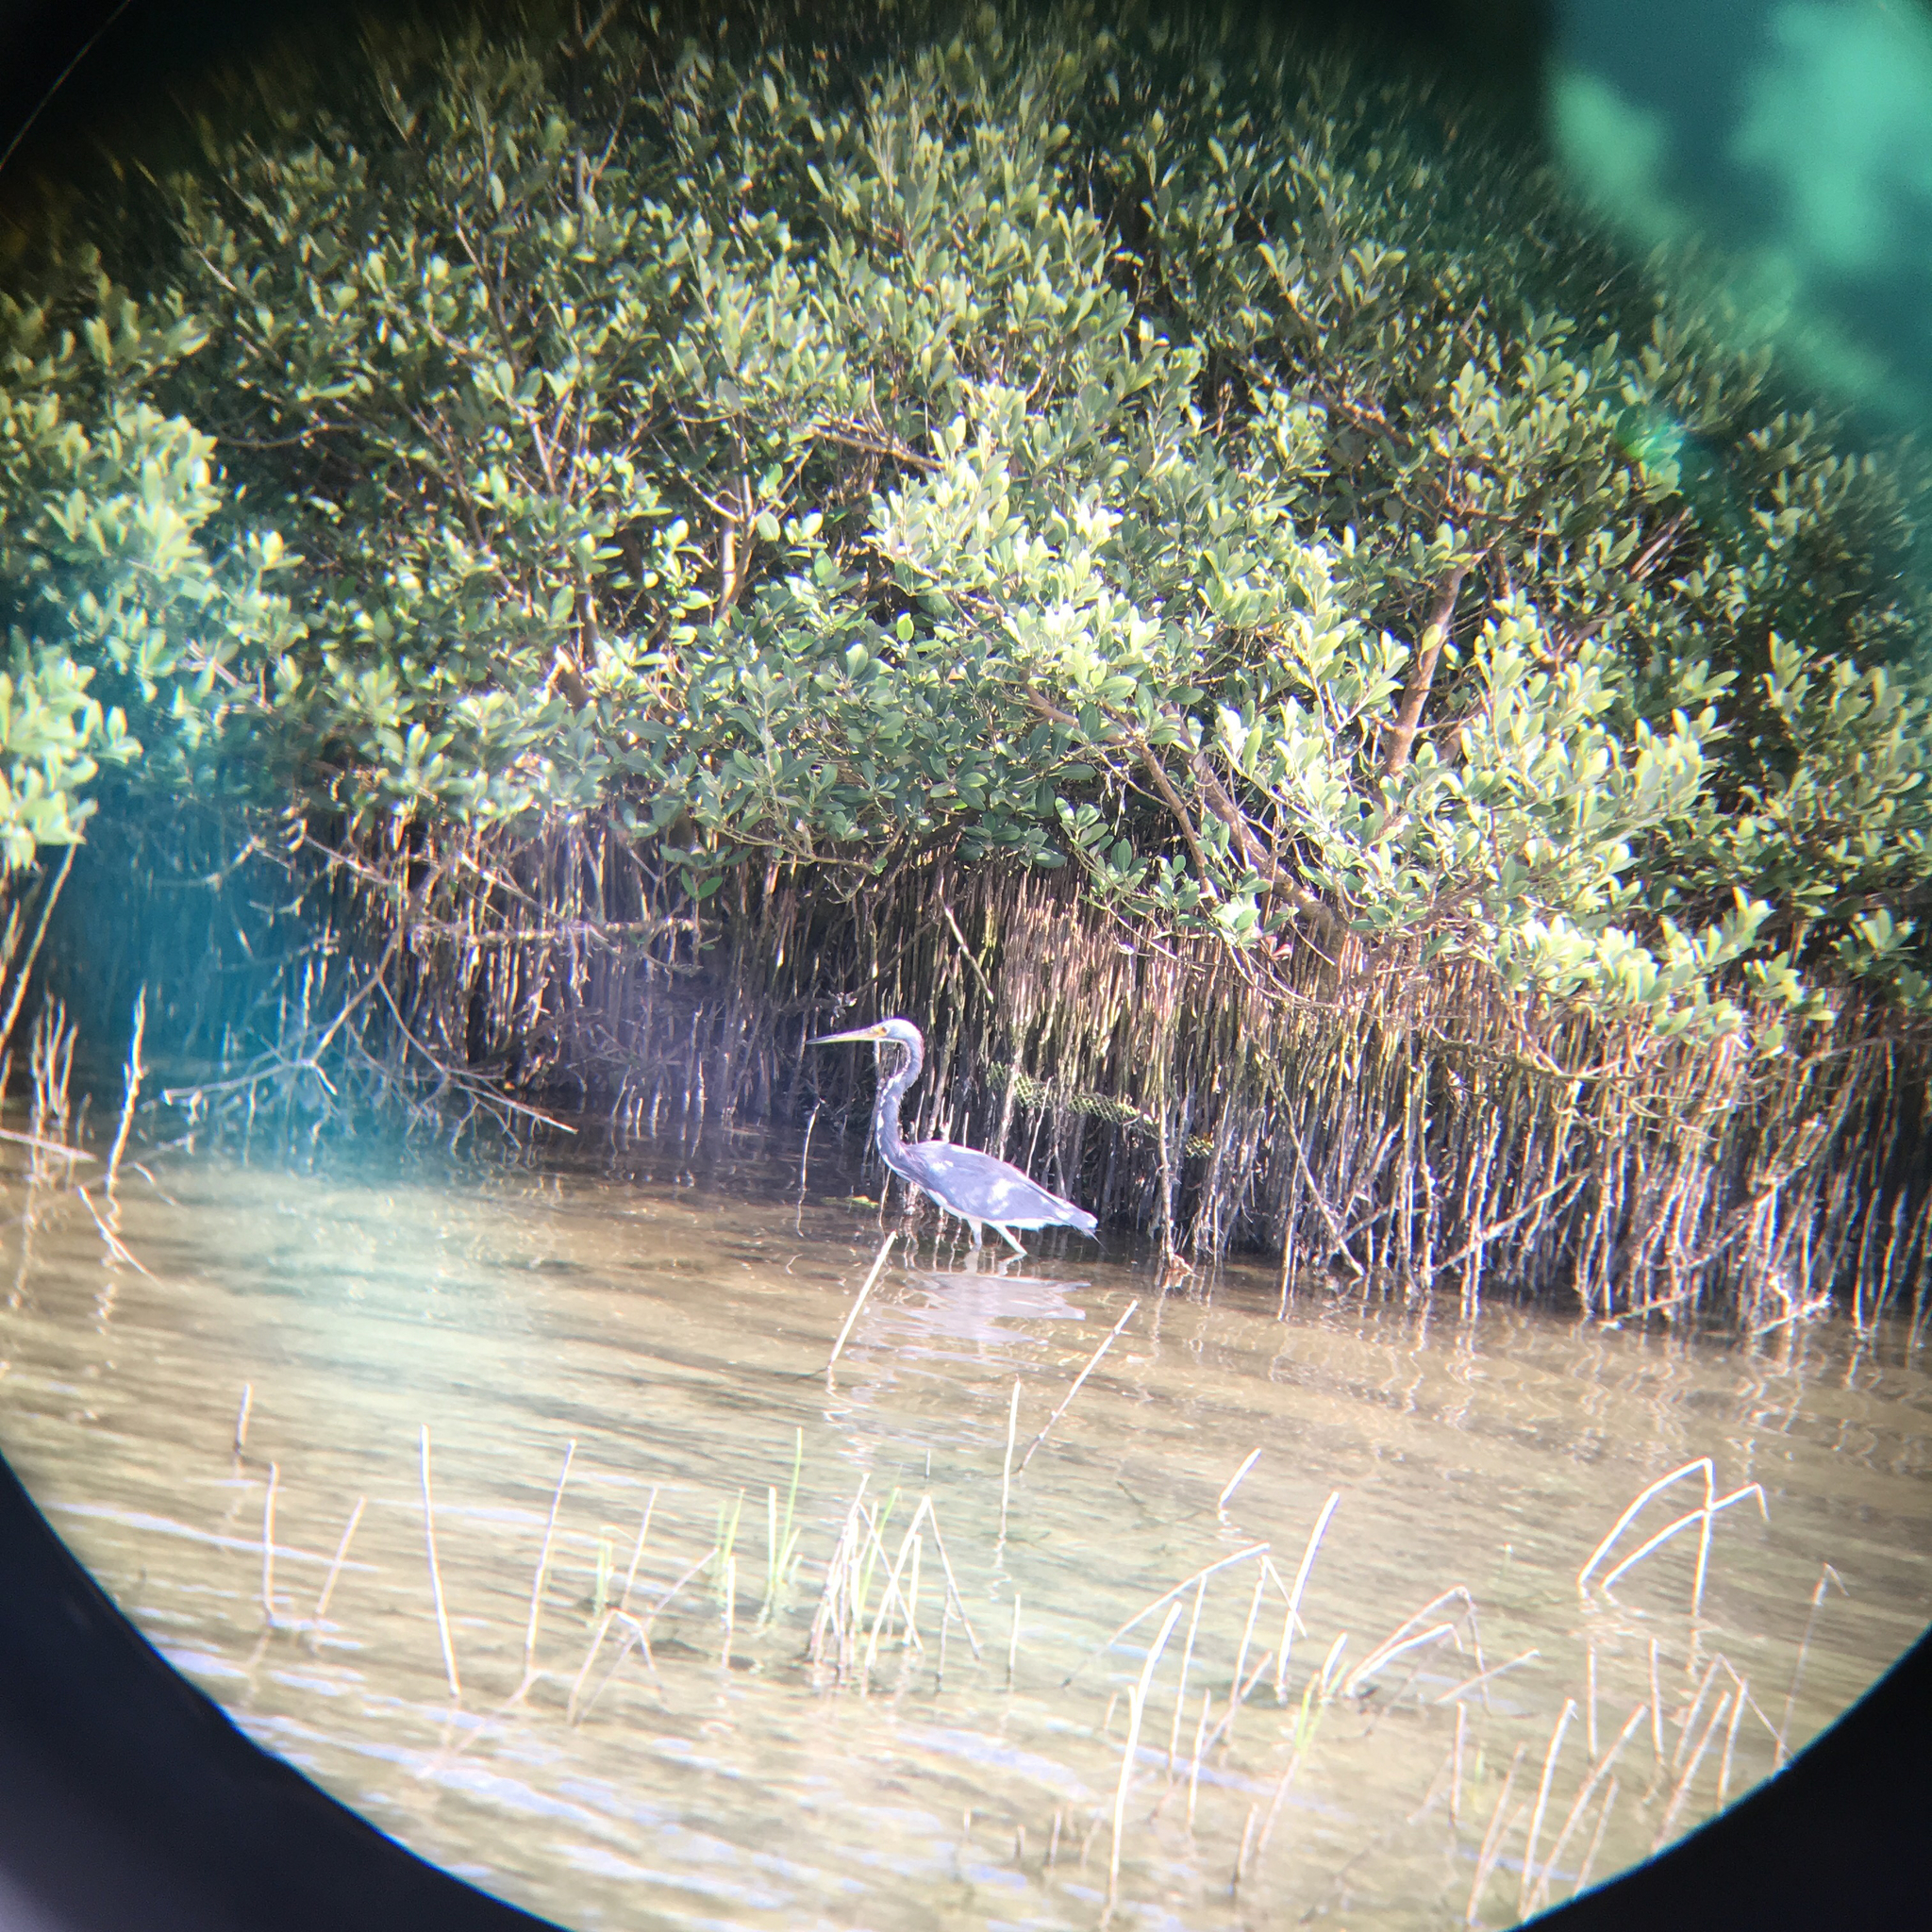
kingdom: Animalia
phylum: Chordata
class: Aves
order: Pelecaniformes
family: Ardeidae
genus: Egretta
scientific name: Egretta tricolor
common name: Tricolored heron
